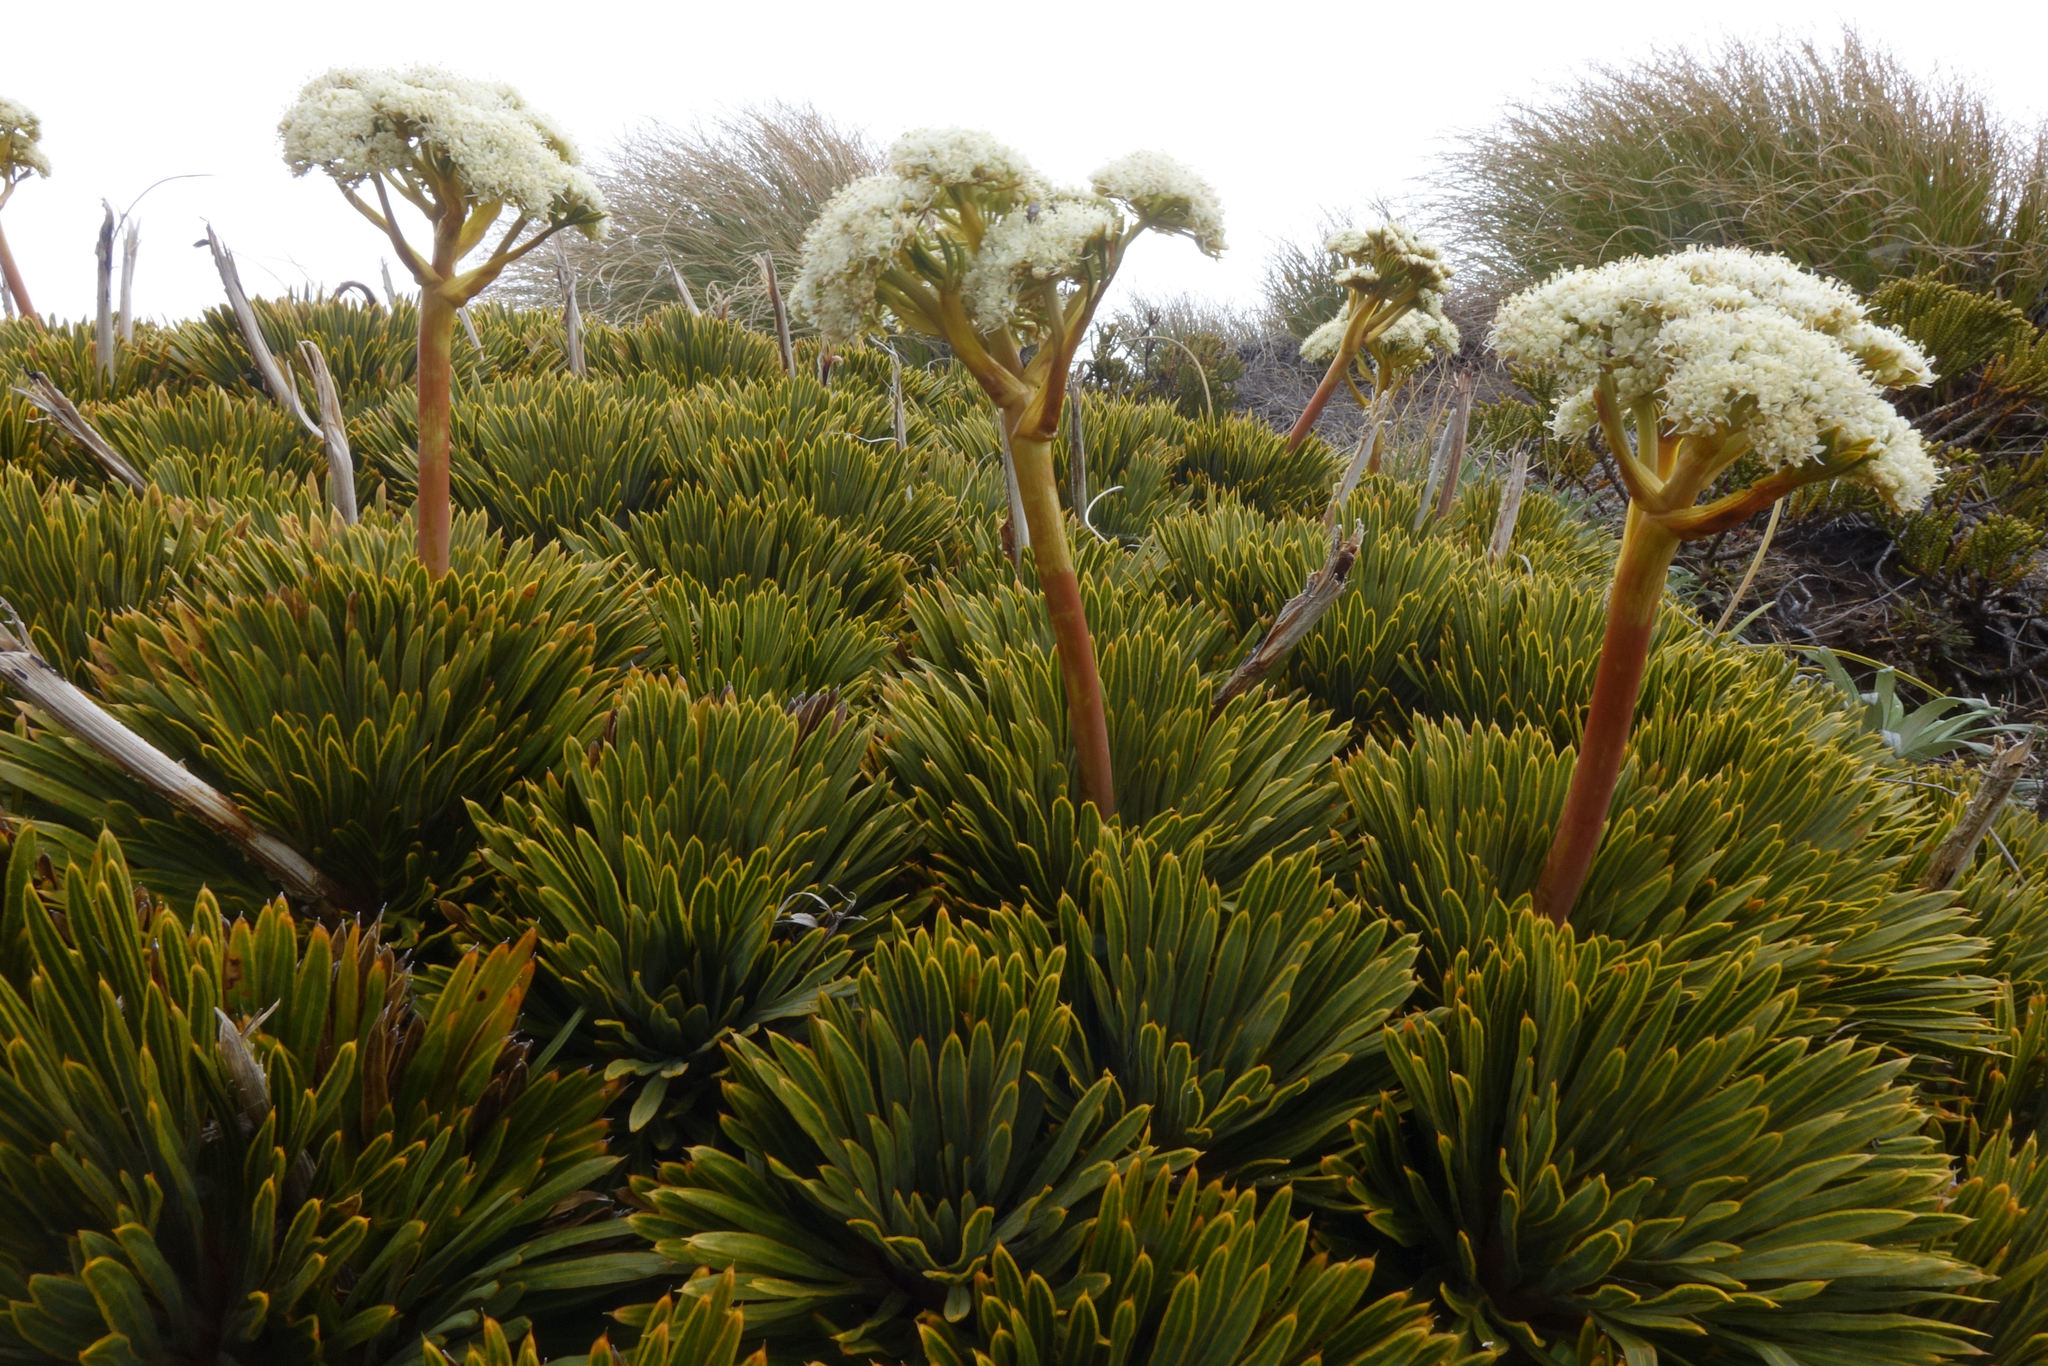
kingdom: Plantae
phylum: Tracheophyta
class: Magnoliopsida
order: Apiales
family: Apiaceae
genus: Aciphylla
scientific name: Aciphylla crosby-smithii
